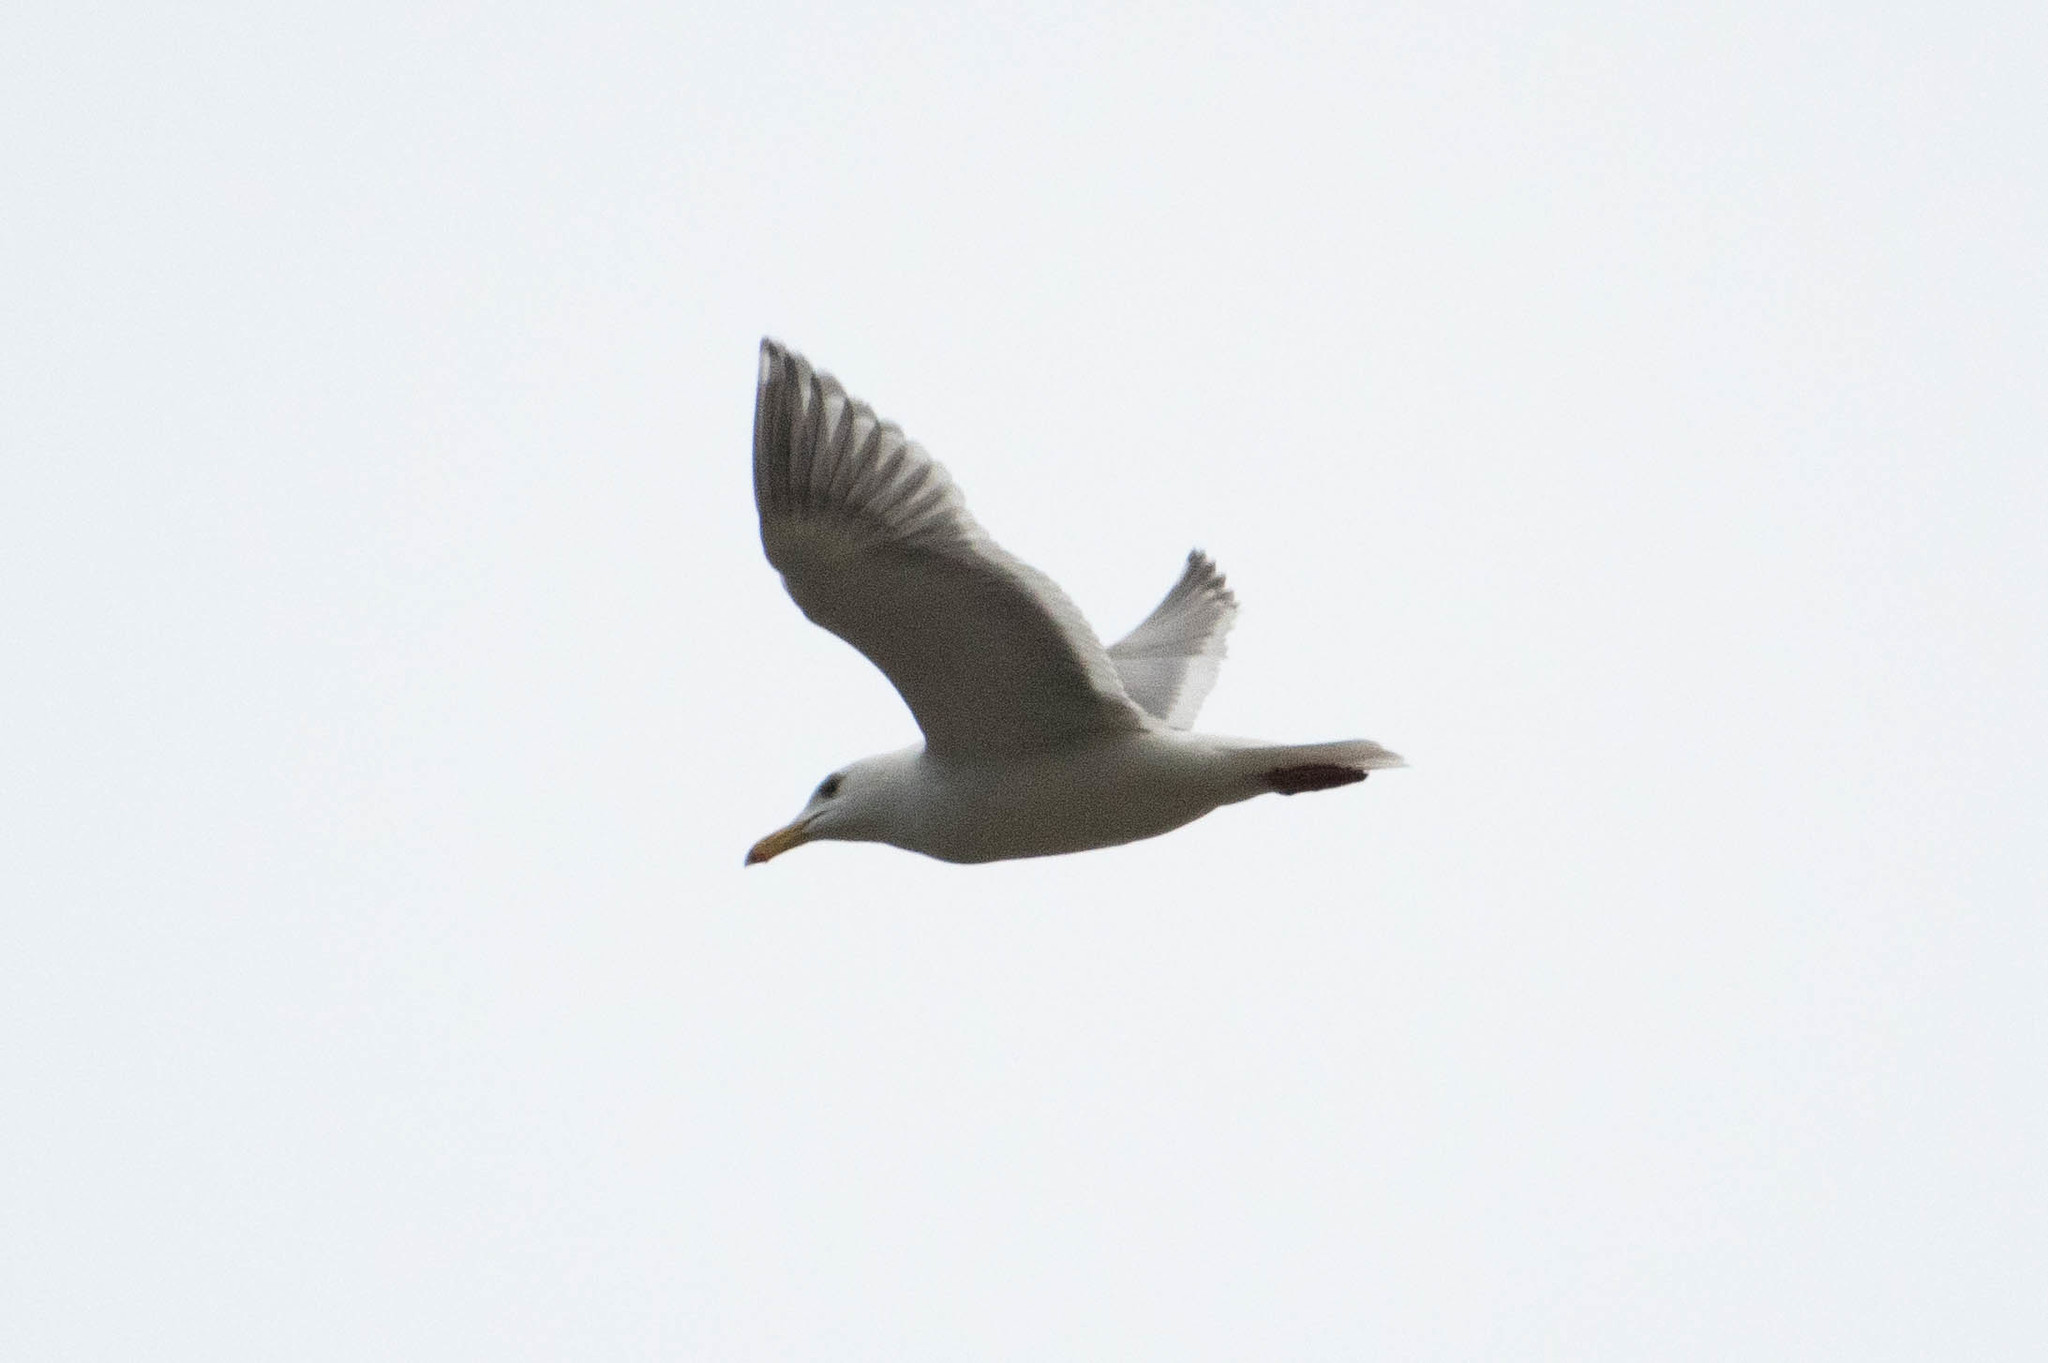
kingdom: Animalia
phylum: Chordata
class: Aves
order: Charadriiformes
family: Laridae
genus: Larus
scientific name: Larus
